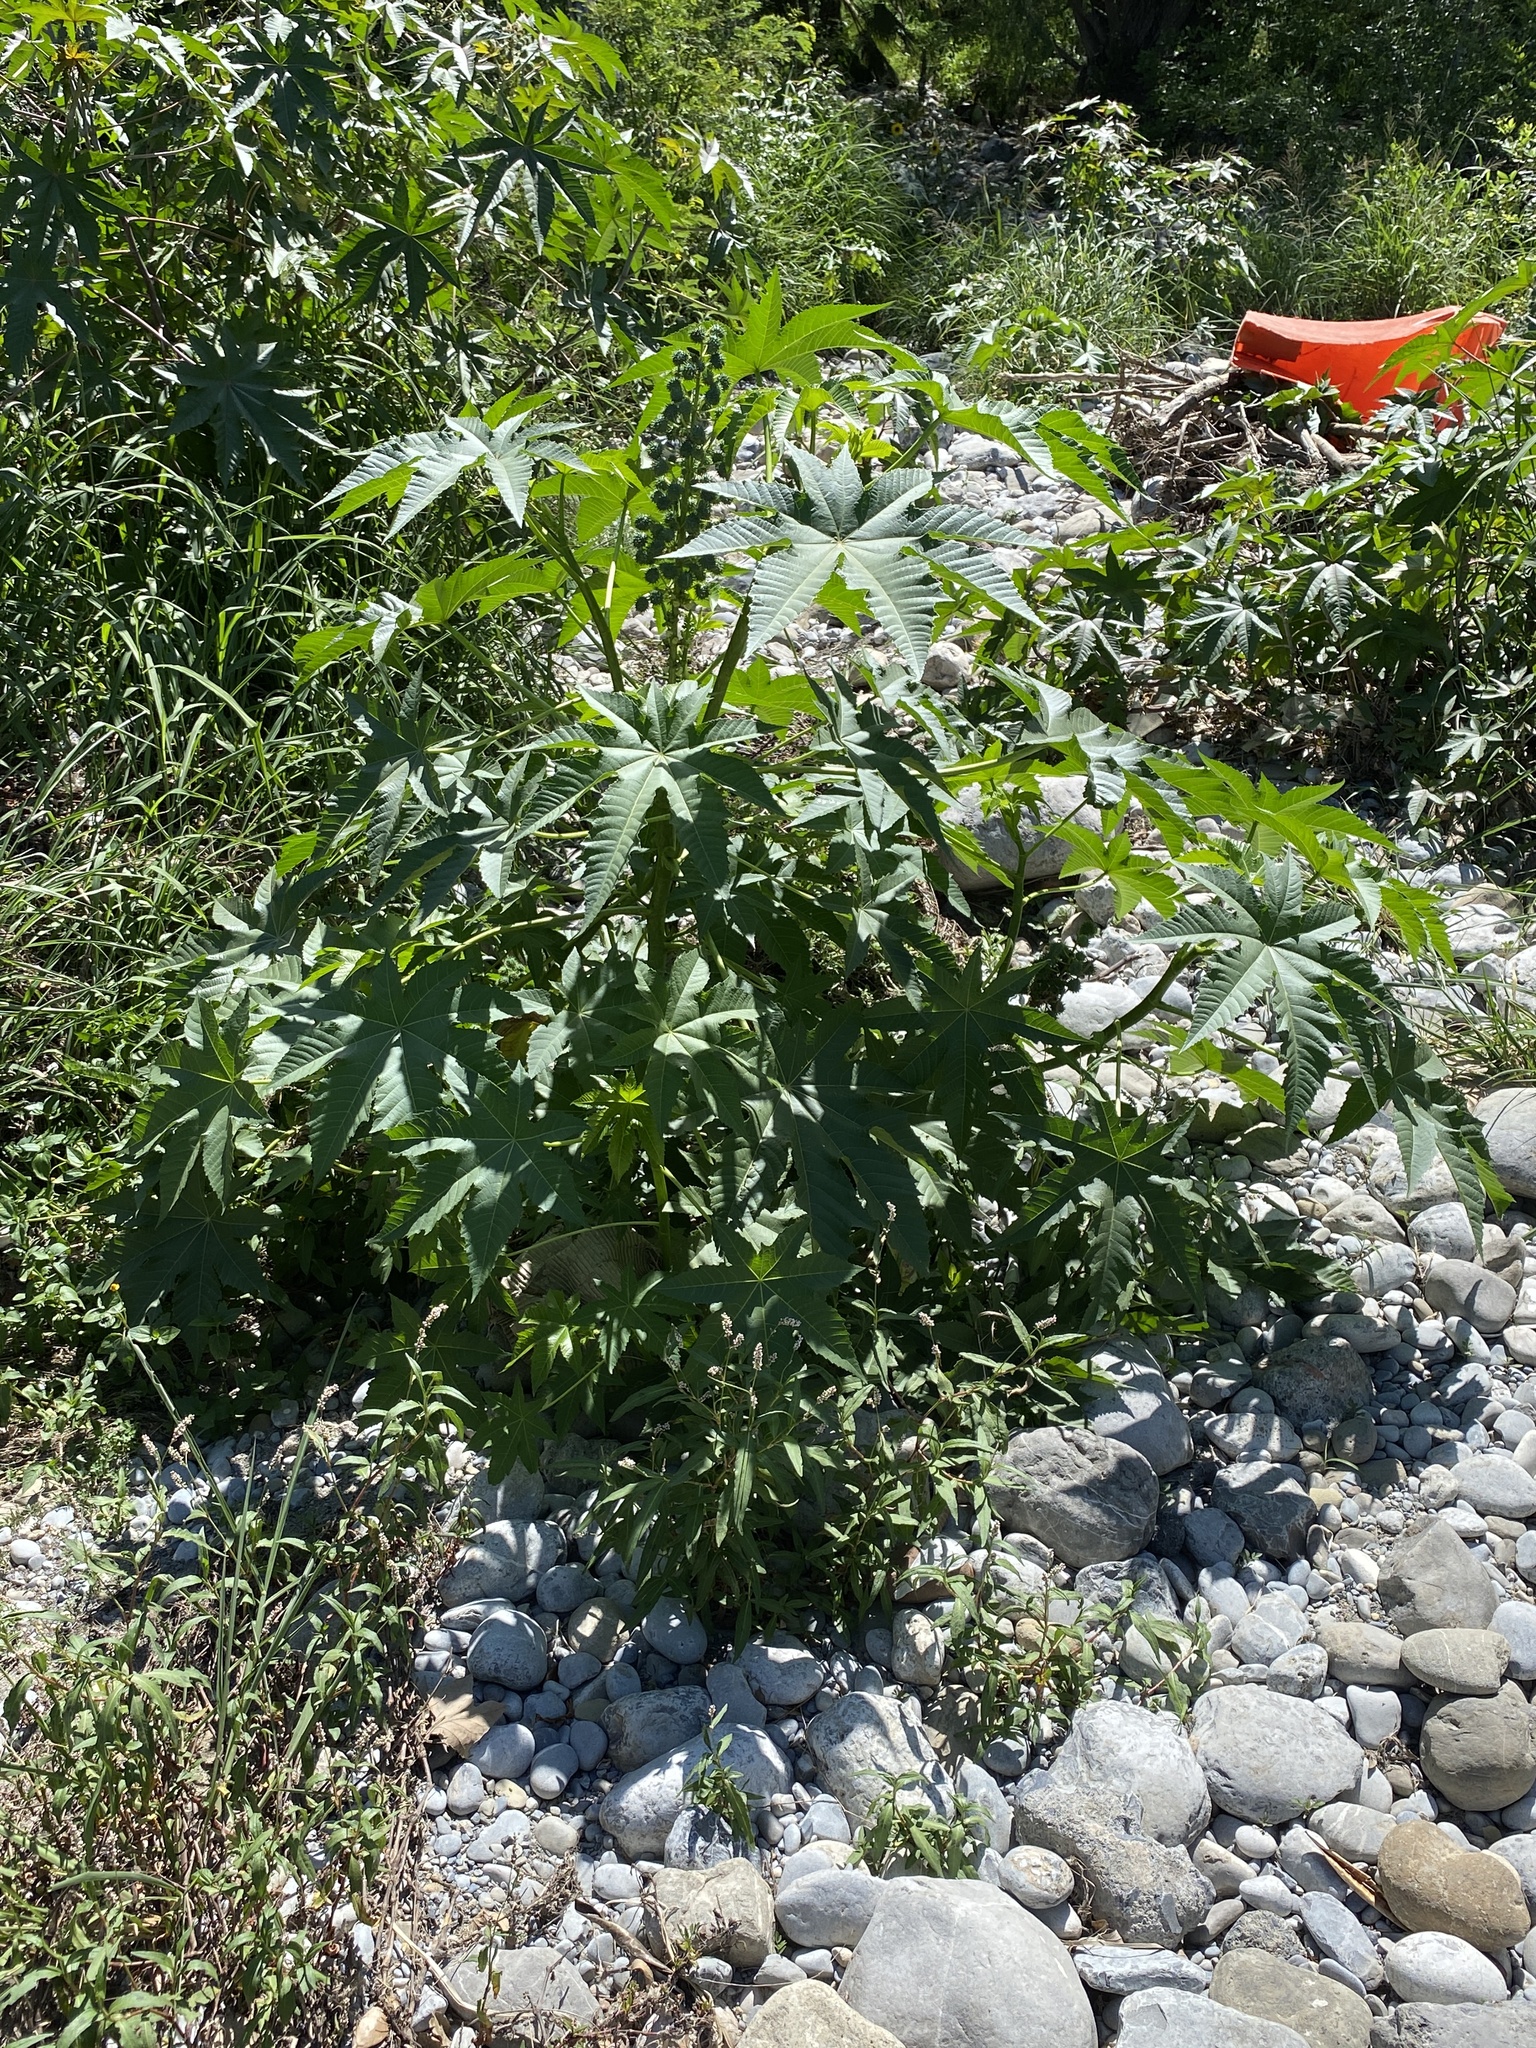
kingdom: Plantae
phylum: Tracheophyta
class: Magnoliopsida
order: Malpighiales
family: Euphorbiaceae
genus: Ricinus
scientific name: Ricinus communis
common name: Castor-oil-plant
